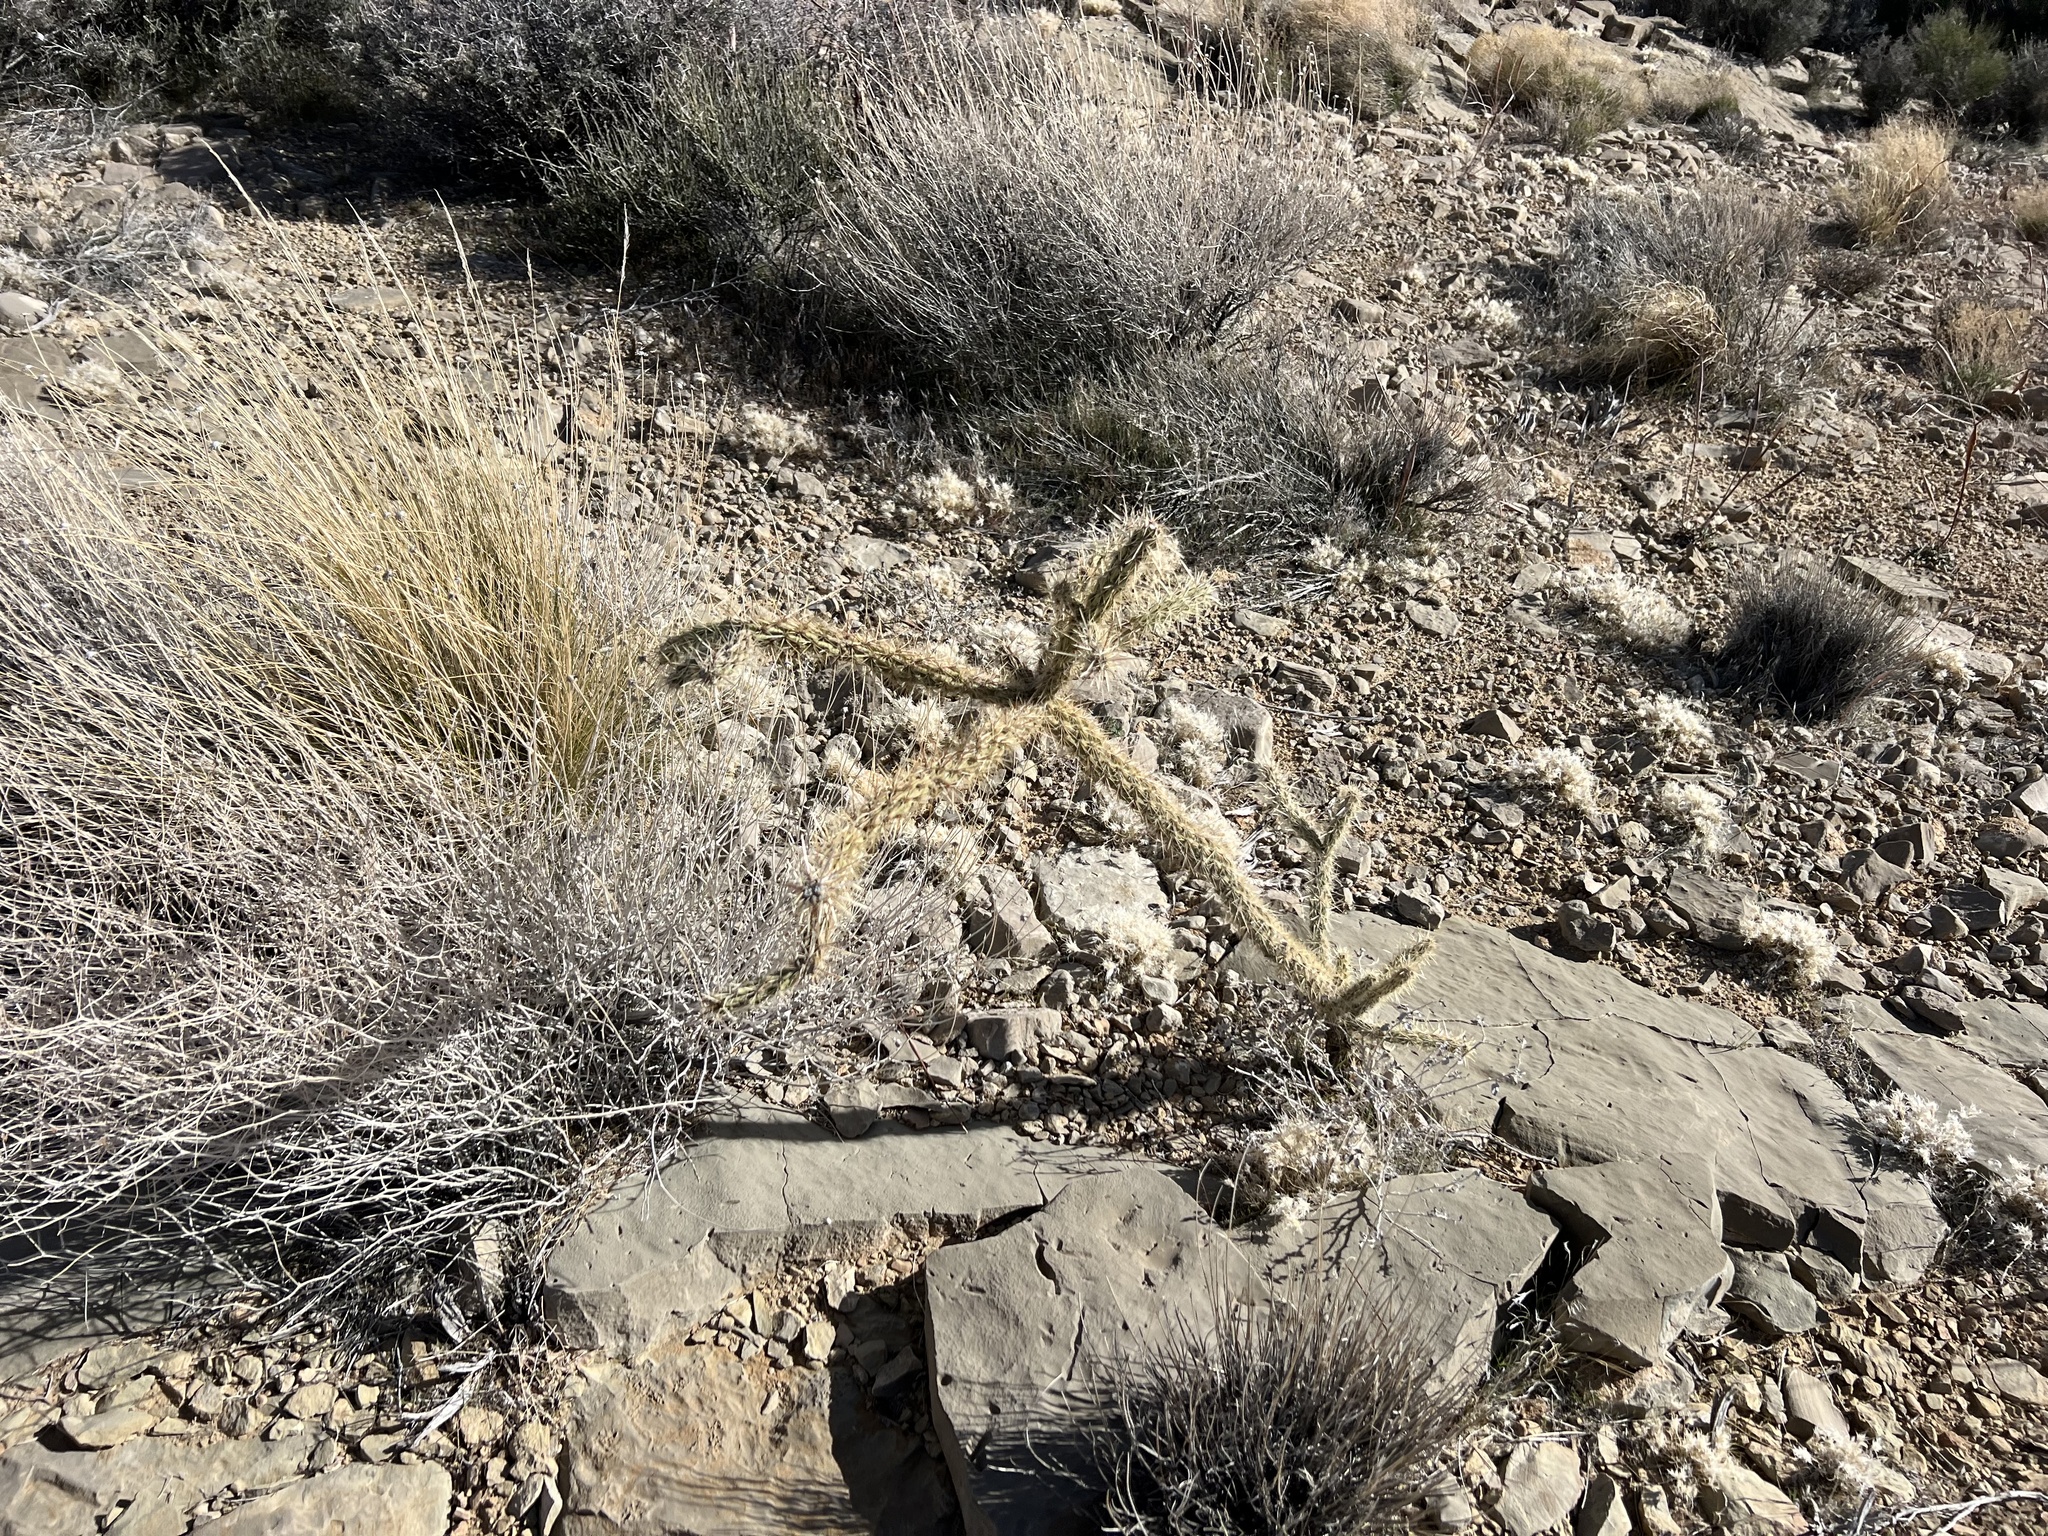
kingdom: Plantae
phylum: Tracheophyta
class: Magnoliopsida
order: Caryophyllales
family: Cactaceae
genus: Cylindropuntia
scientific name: Cylindropuntia acanthocarpa
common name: Buckhorn cholla
